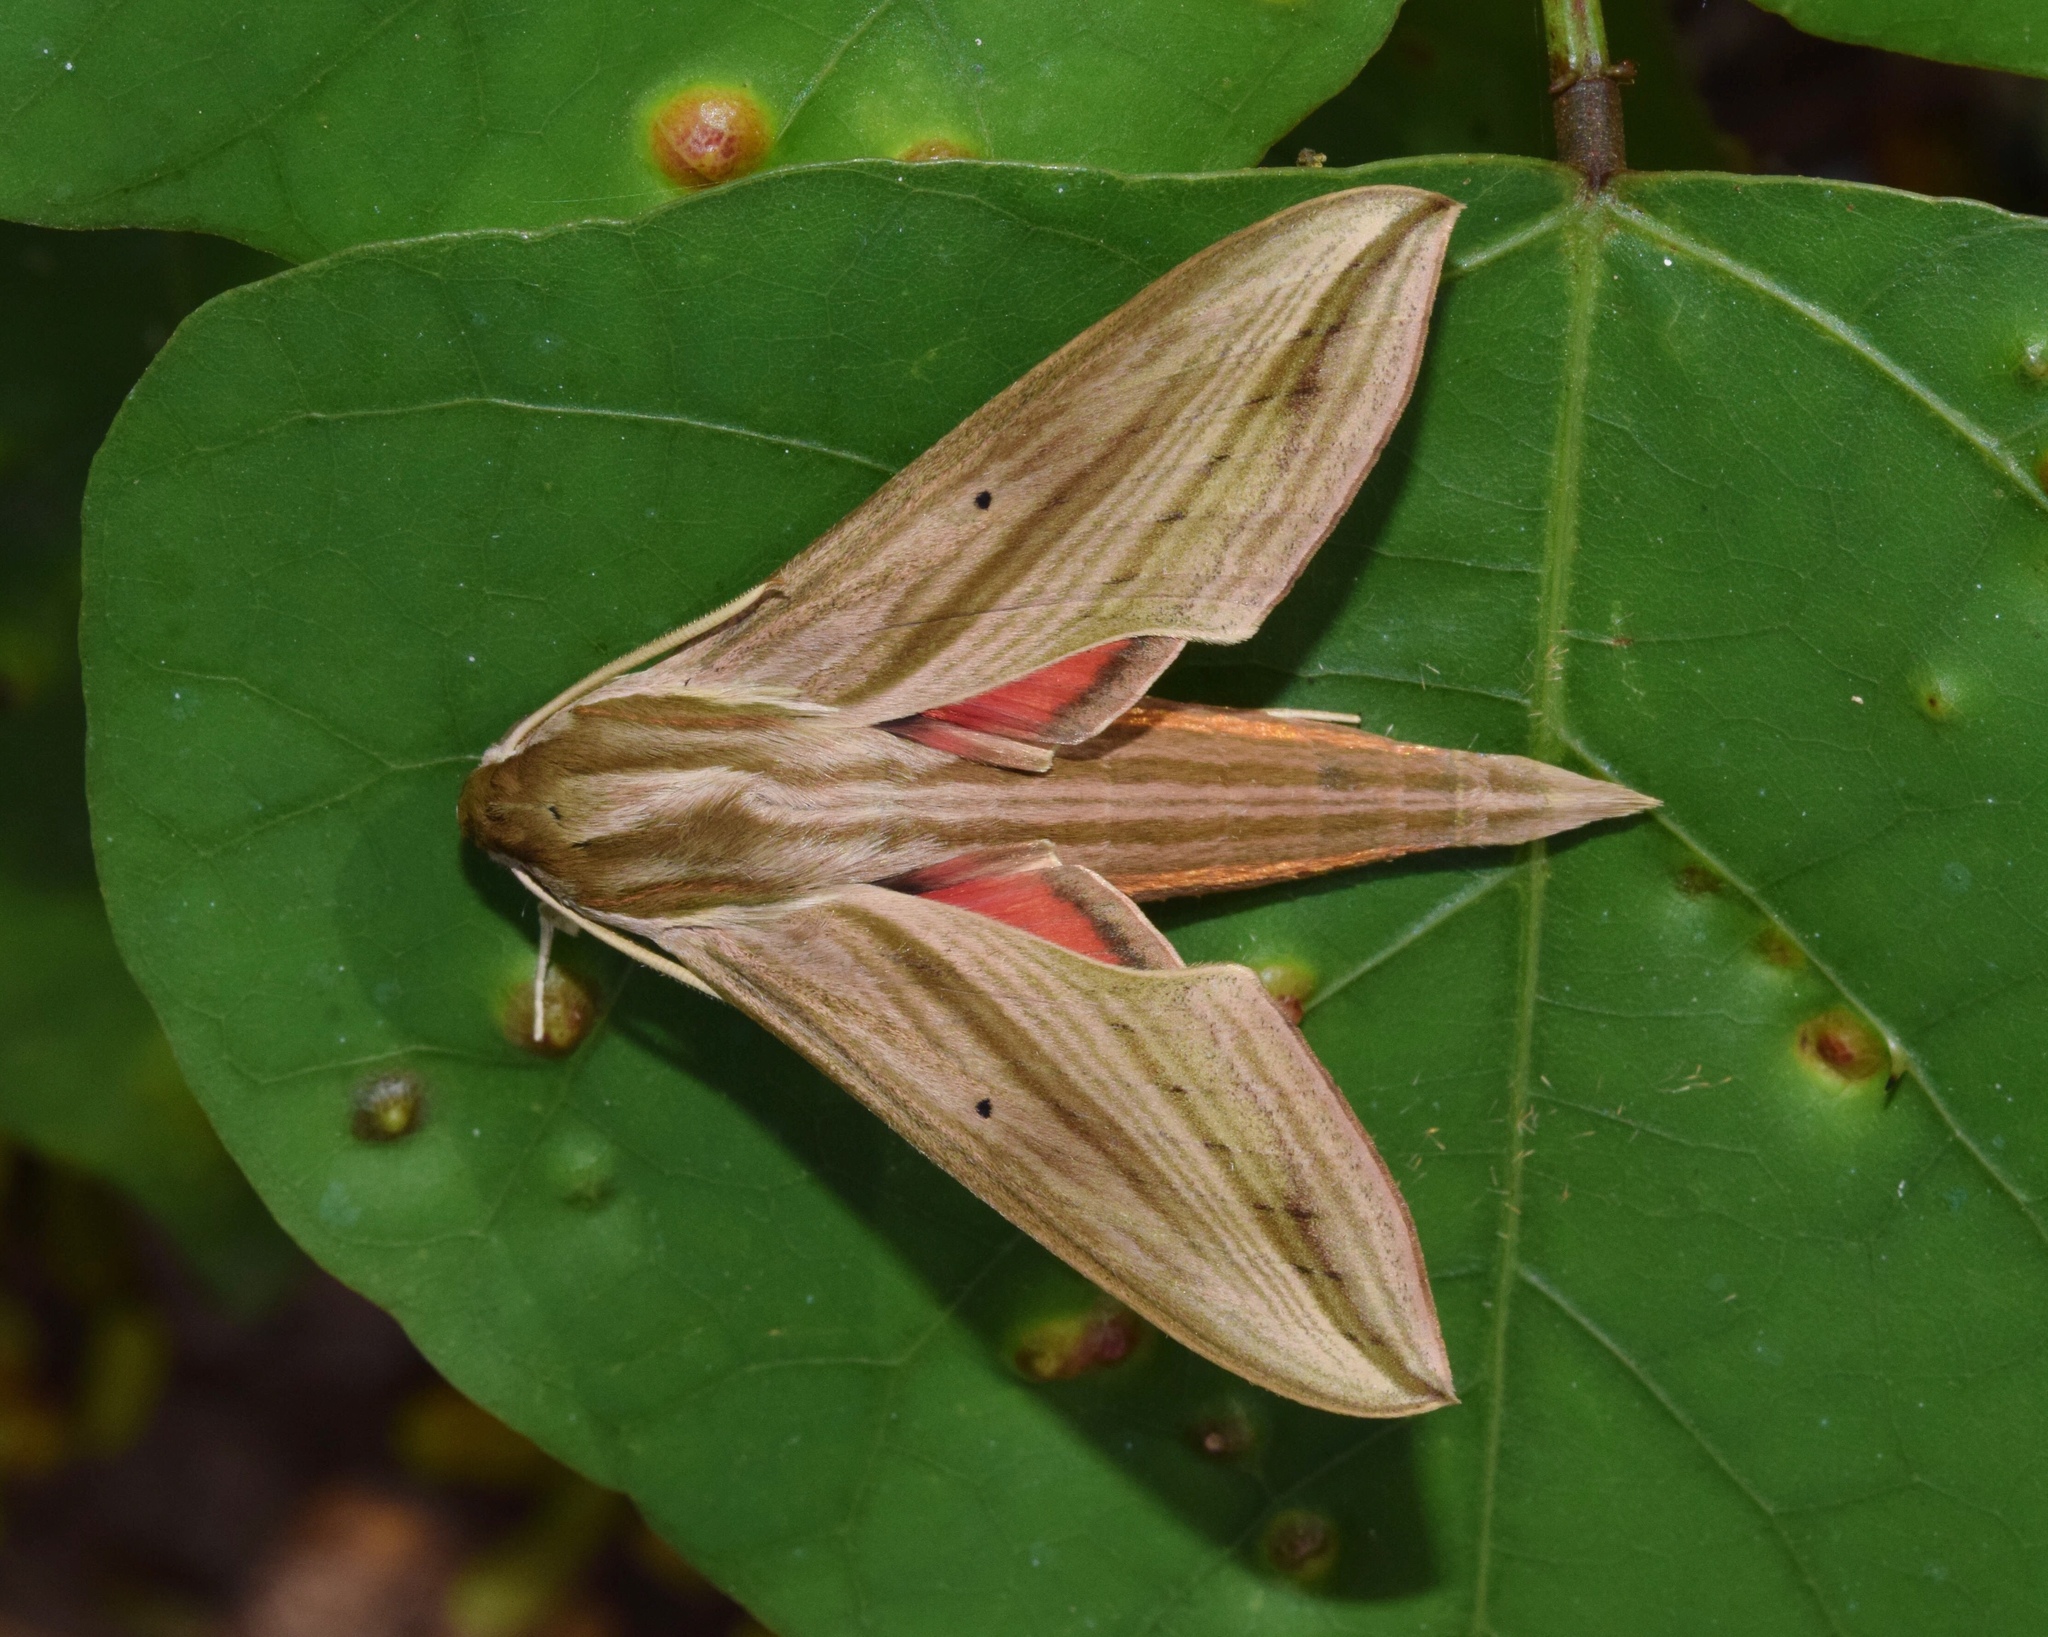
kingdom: Animalia
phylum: Arthropoda
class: Insecta
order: Lepidoptera
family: Sphingidae
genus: Hippotion
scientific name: Hippotion eson
